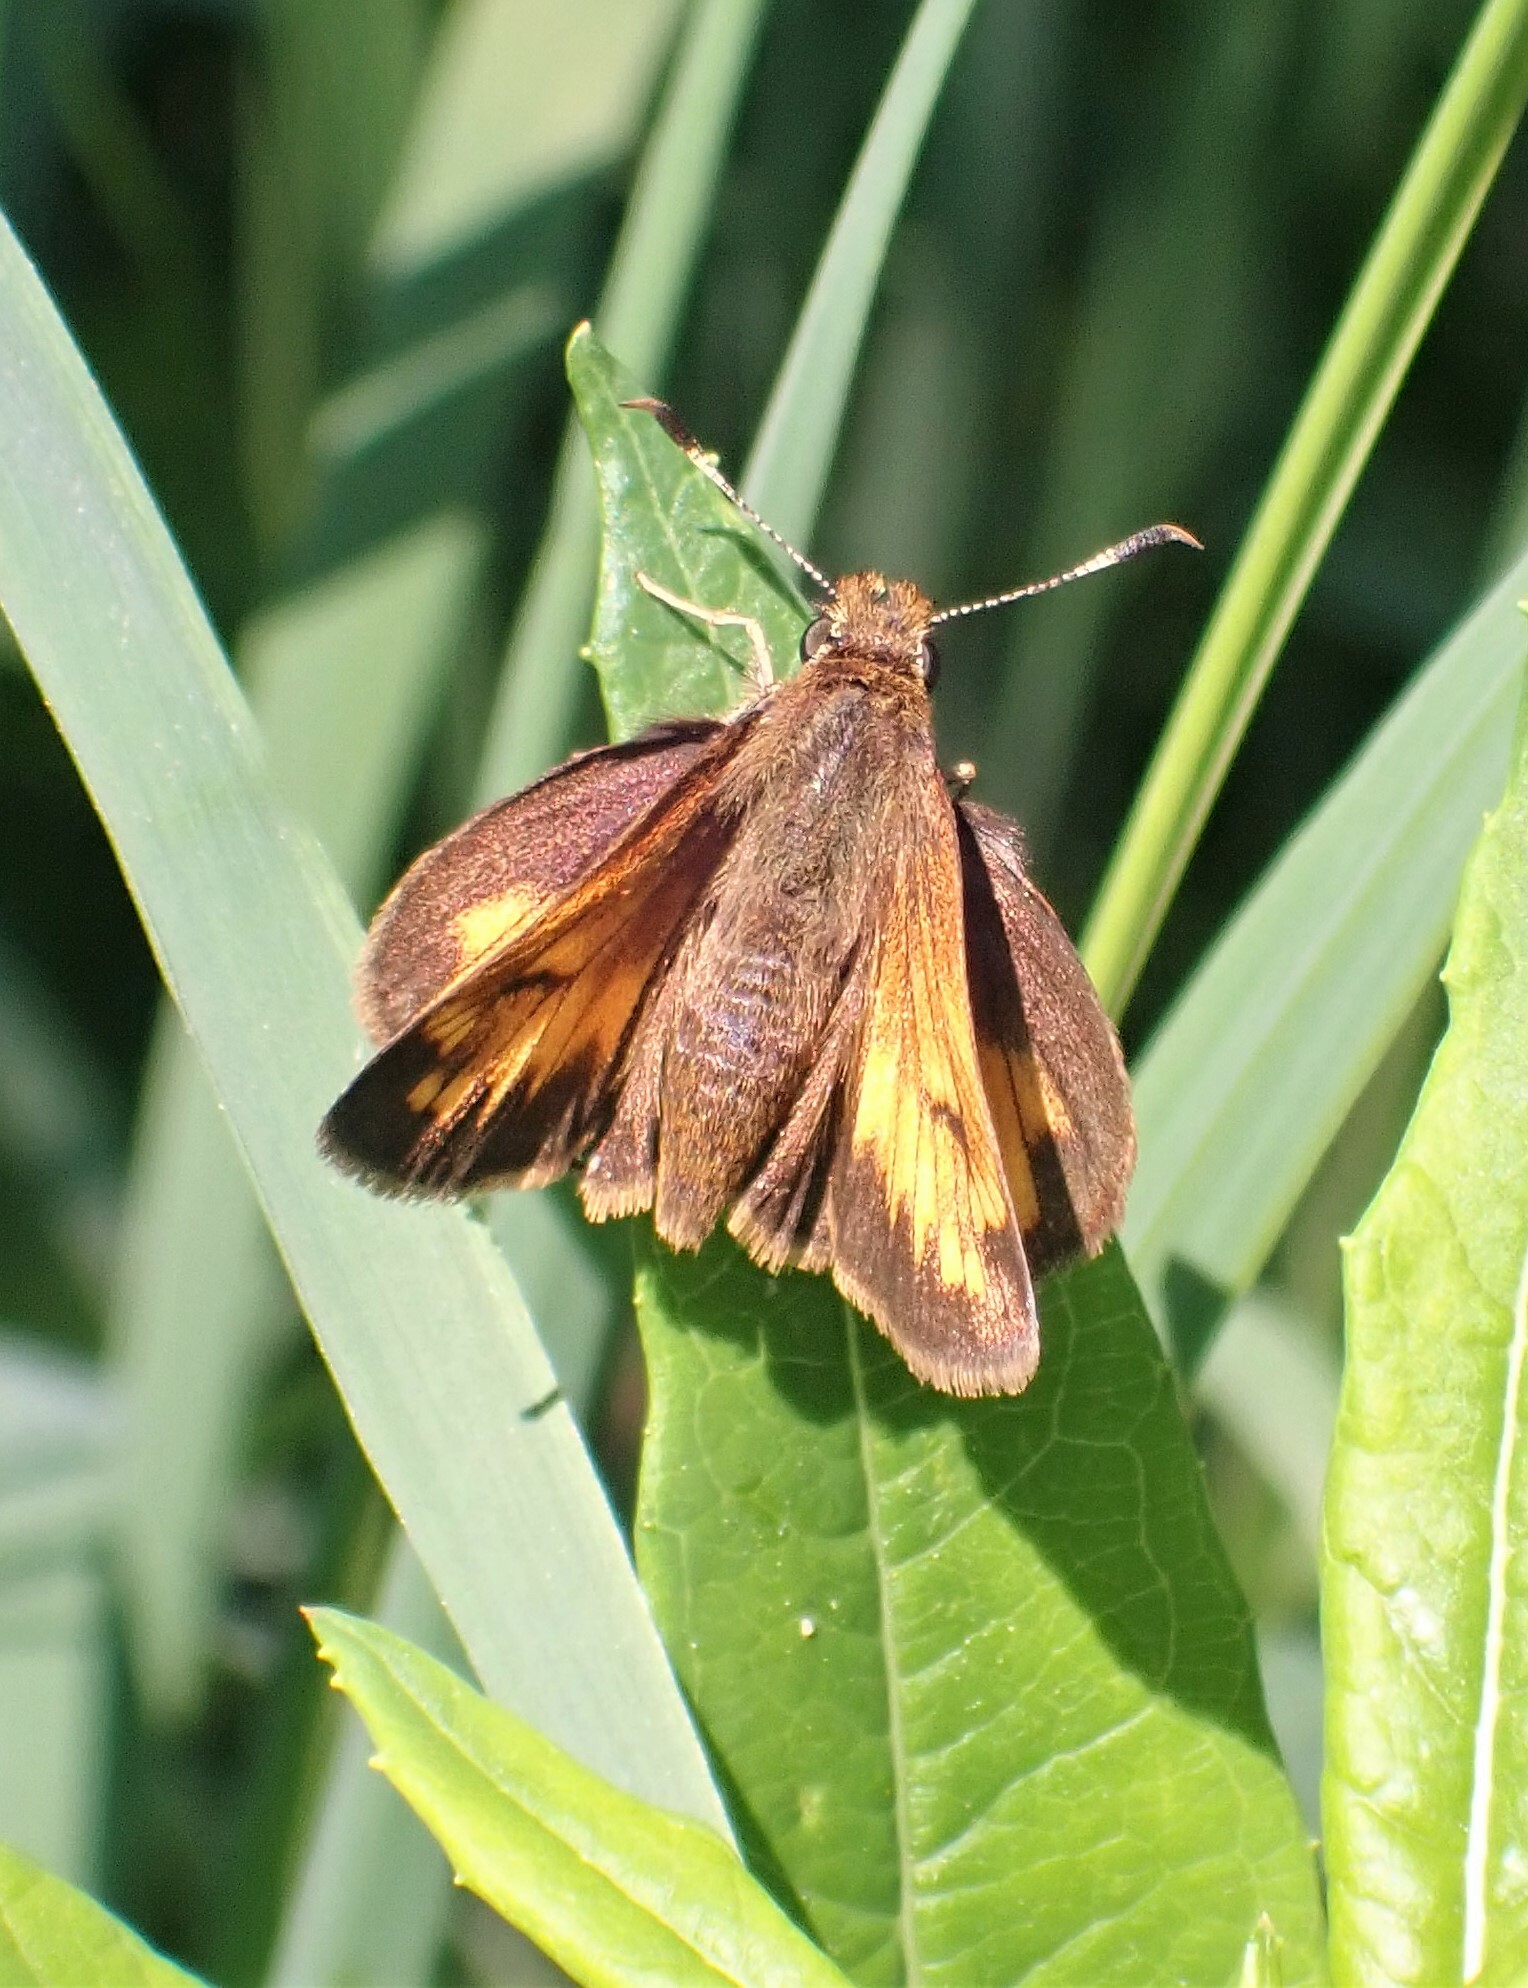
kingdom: Animalia
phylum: Arthropoda
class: Insecta
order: Lepidoptera
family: Hesperiidae
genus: Lon
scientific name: Lon hobomok
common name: Hobomok skipper
